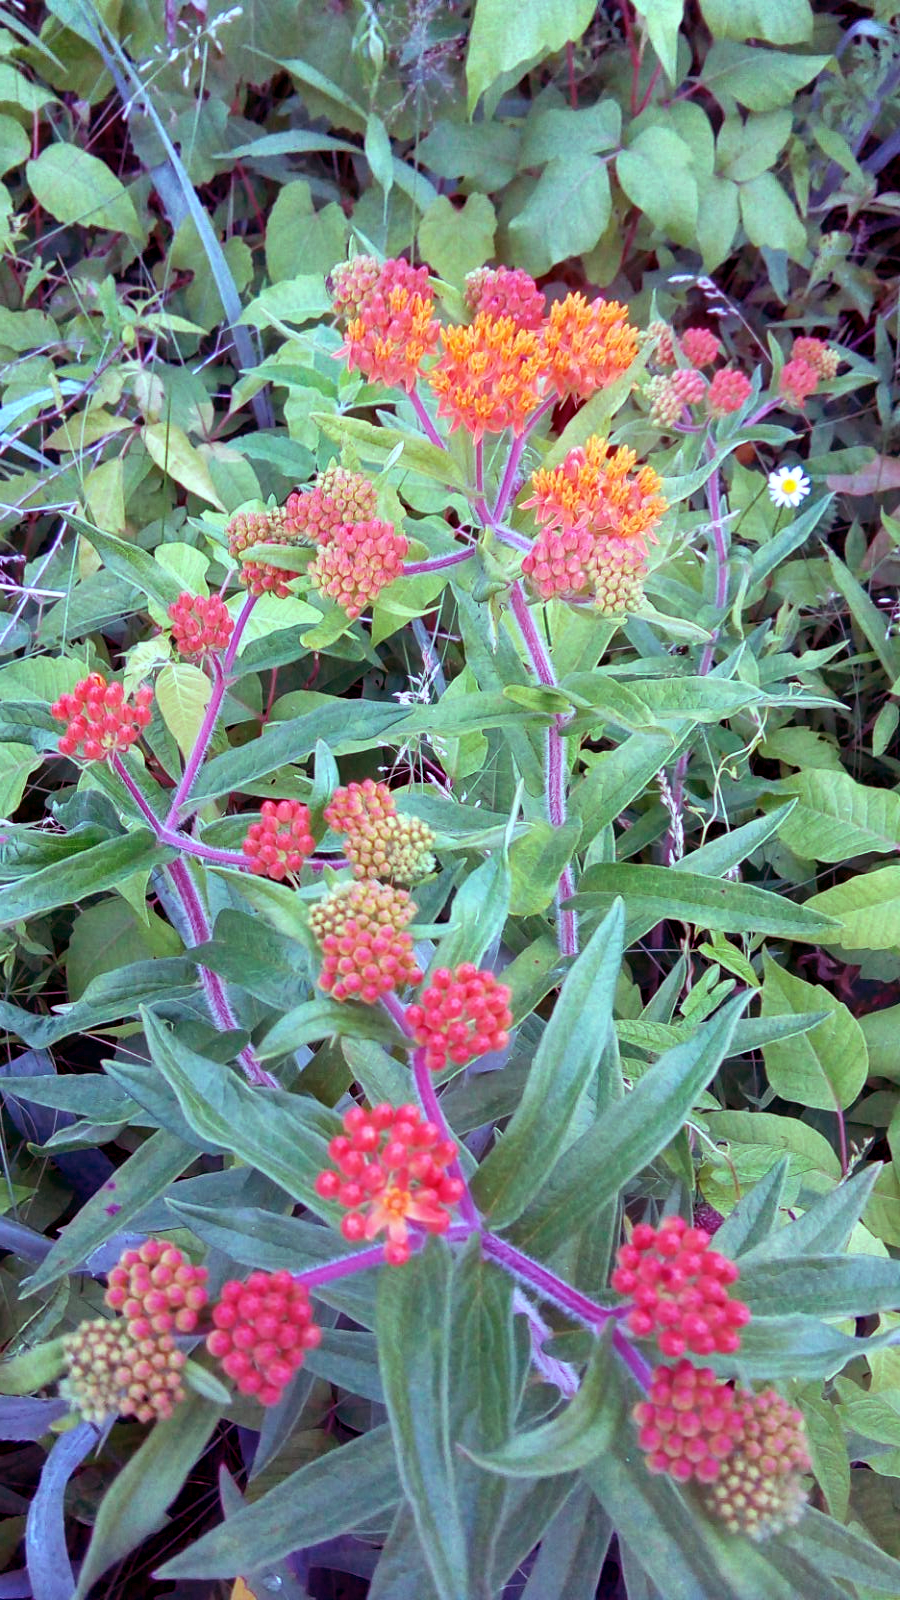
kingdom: Plantae
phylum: Tracheophyta
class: Magnoliopsida
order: Gentianales
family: Apocynaceae
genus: Asclepias
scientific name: Asclepias tuberosa
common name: Butterfly milkweed
